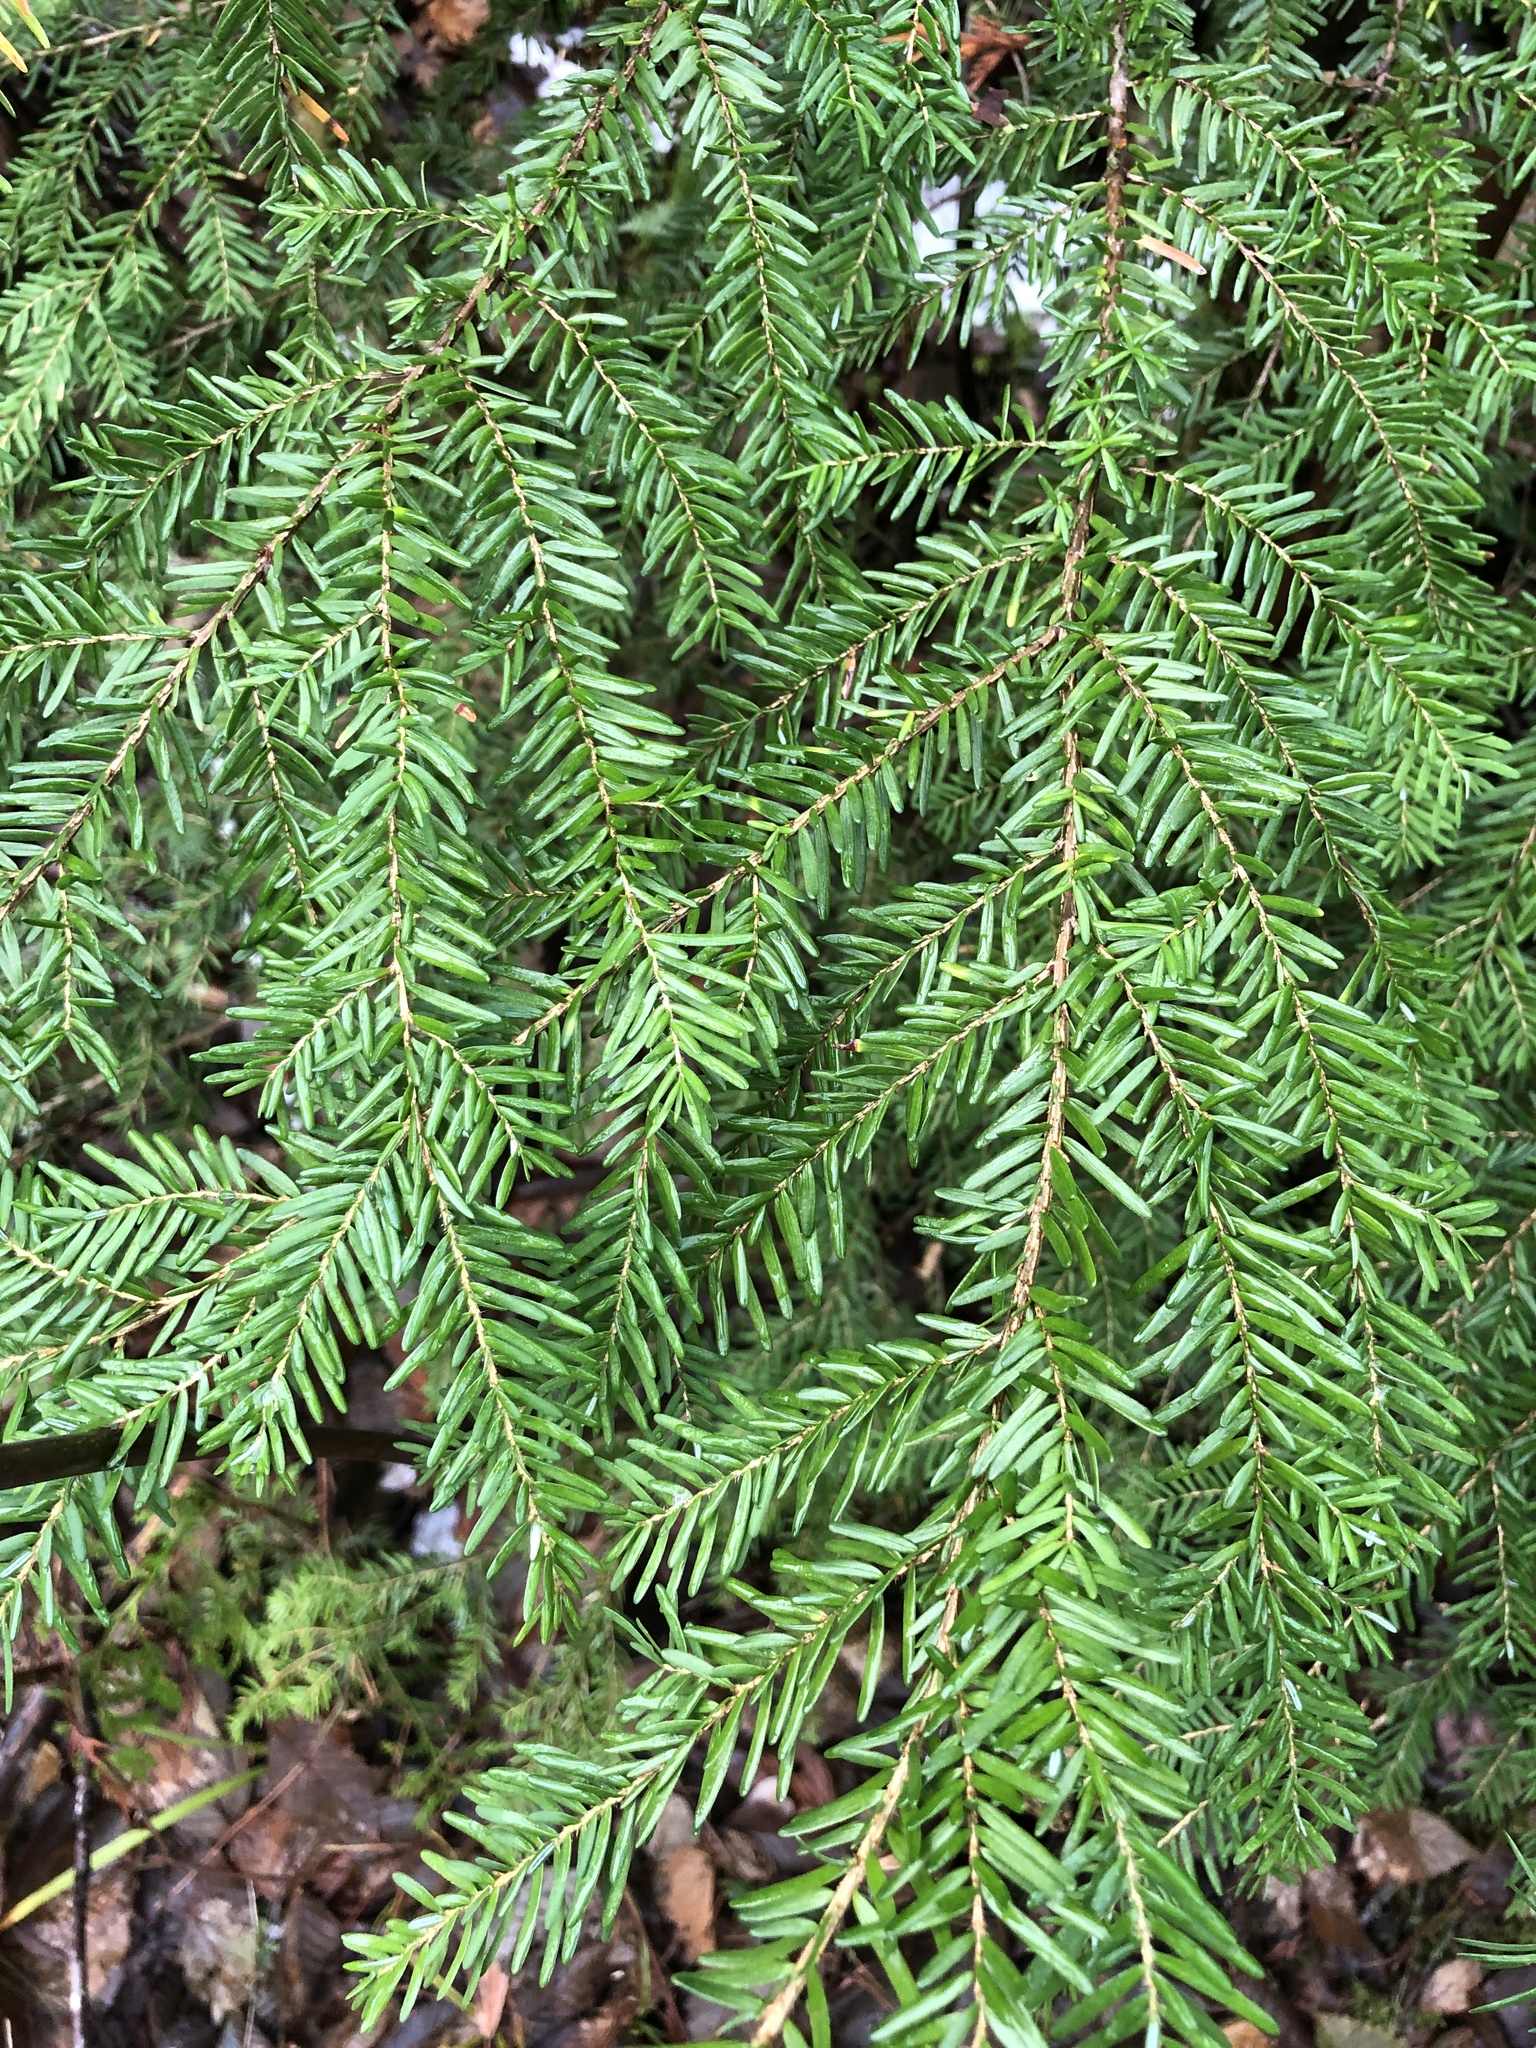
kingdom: Plantae
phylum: Tracheophyta
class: Pinopsida
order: Pinales
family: Pinaceae
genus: Tsuga
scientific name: Tsuga heterophylla
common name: Western hemlock
